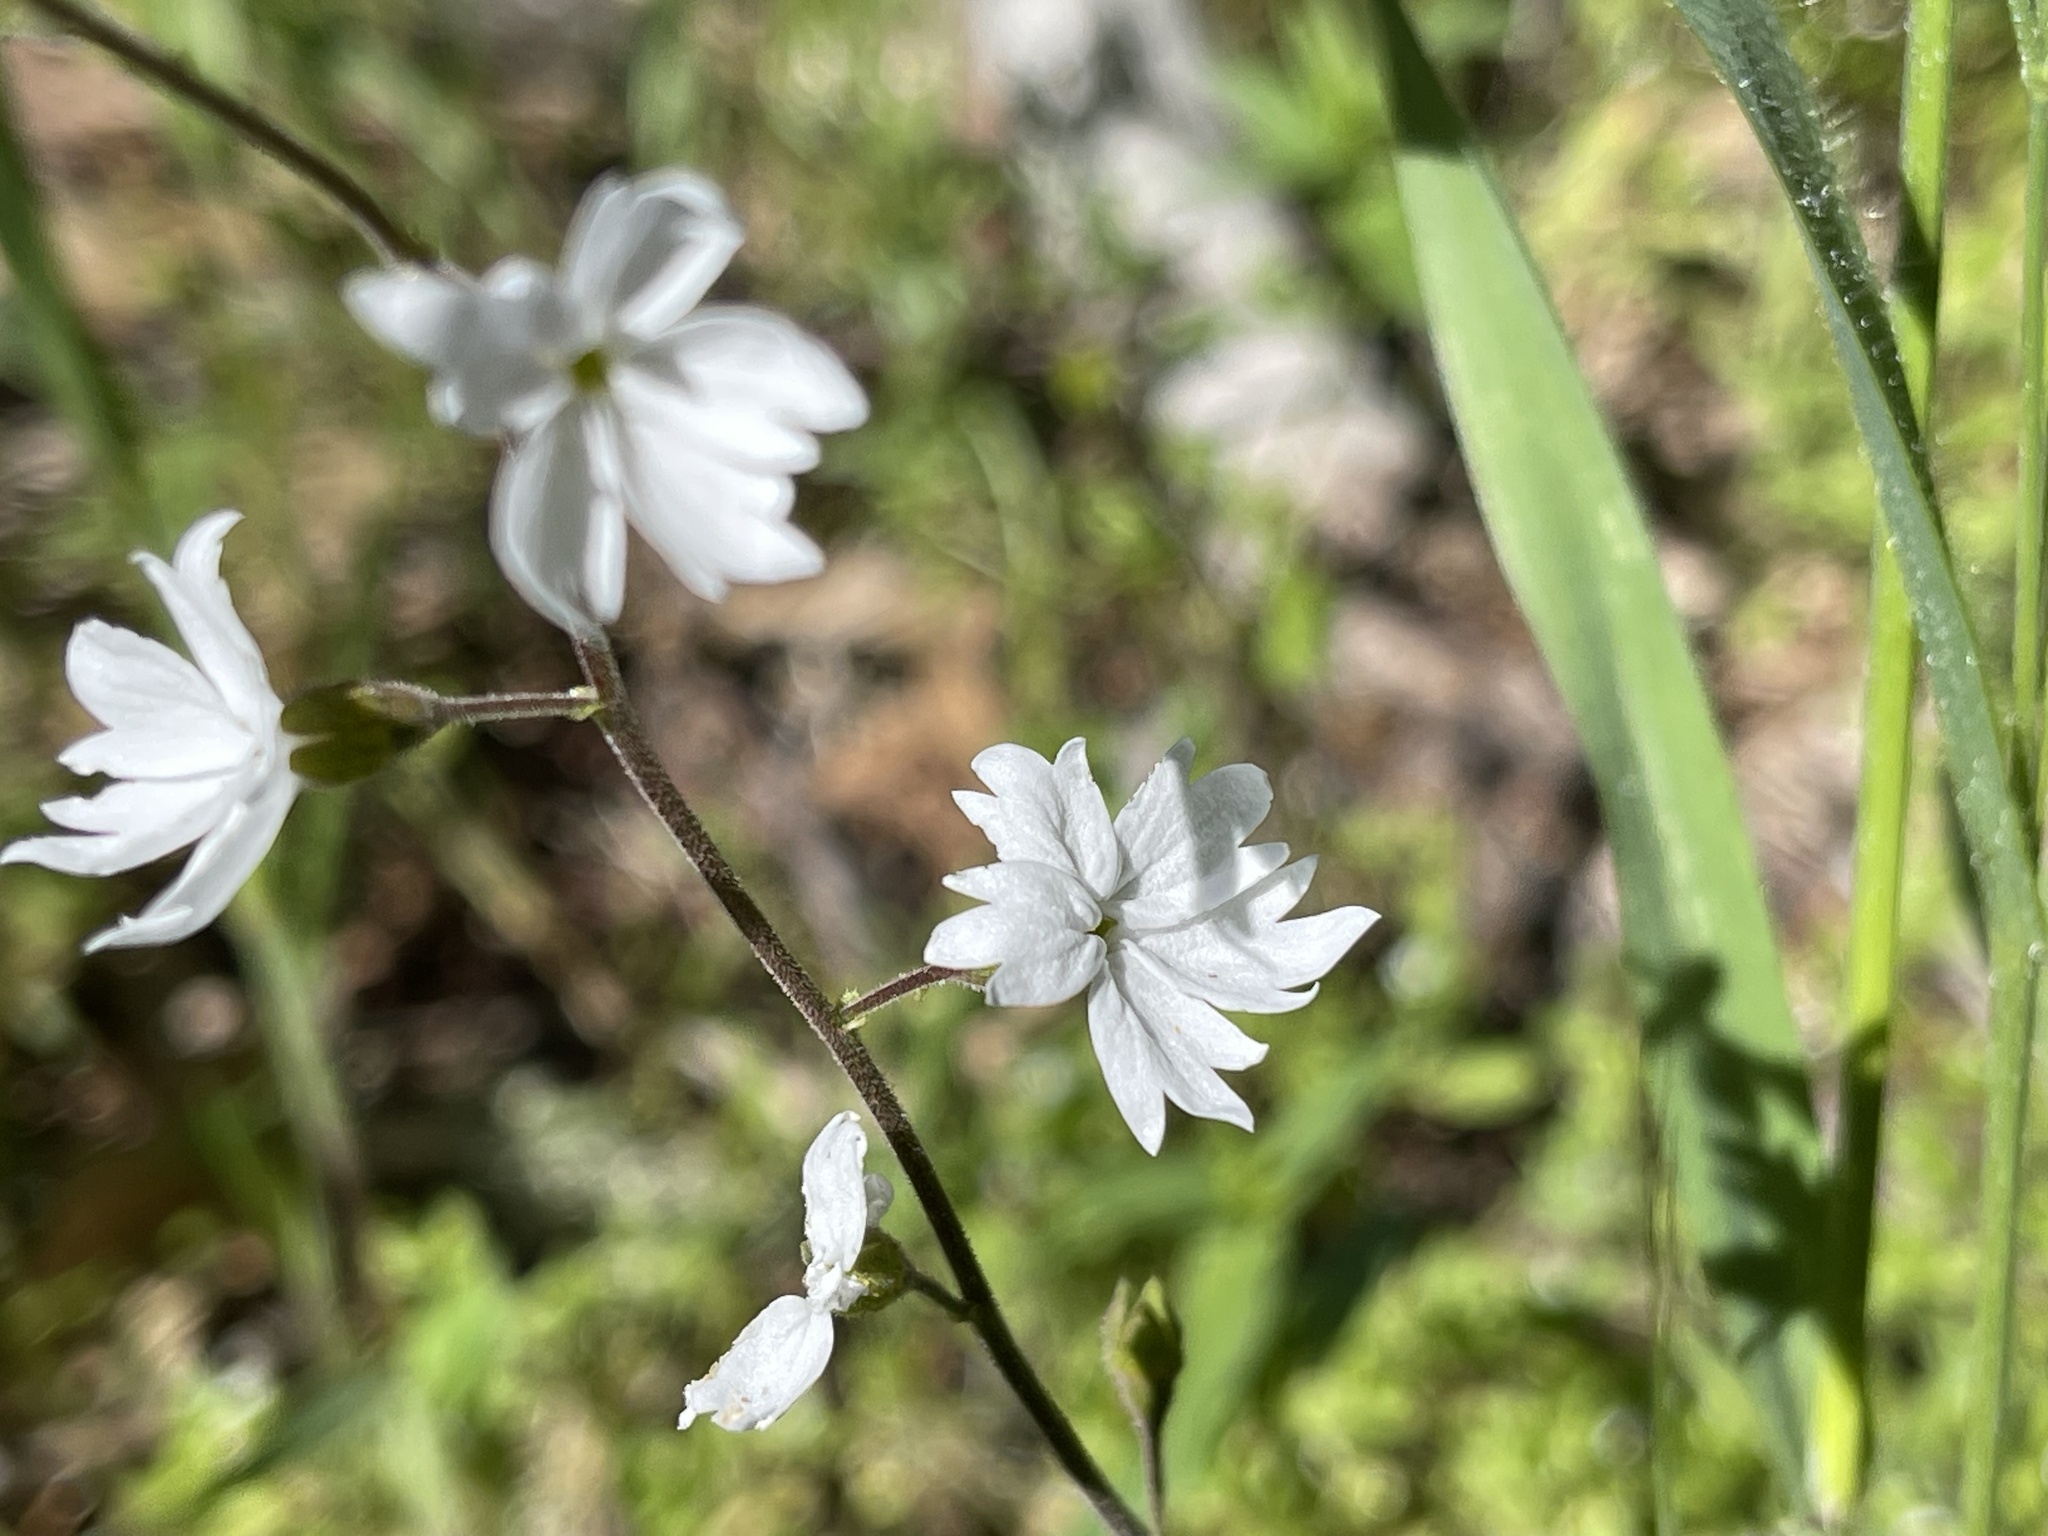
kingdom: Plantae
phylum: Tracheophyta
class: Magnoliopsida
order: Saxifragales
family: Saxifragaceae
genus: Lithophragma
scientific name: Lithophragma affine
